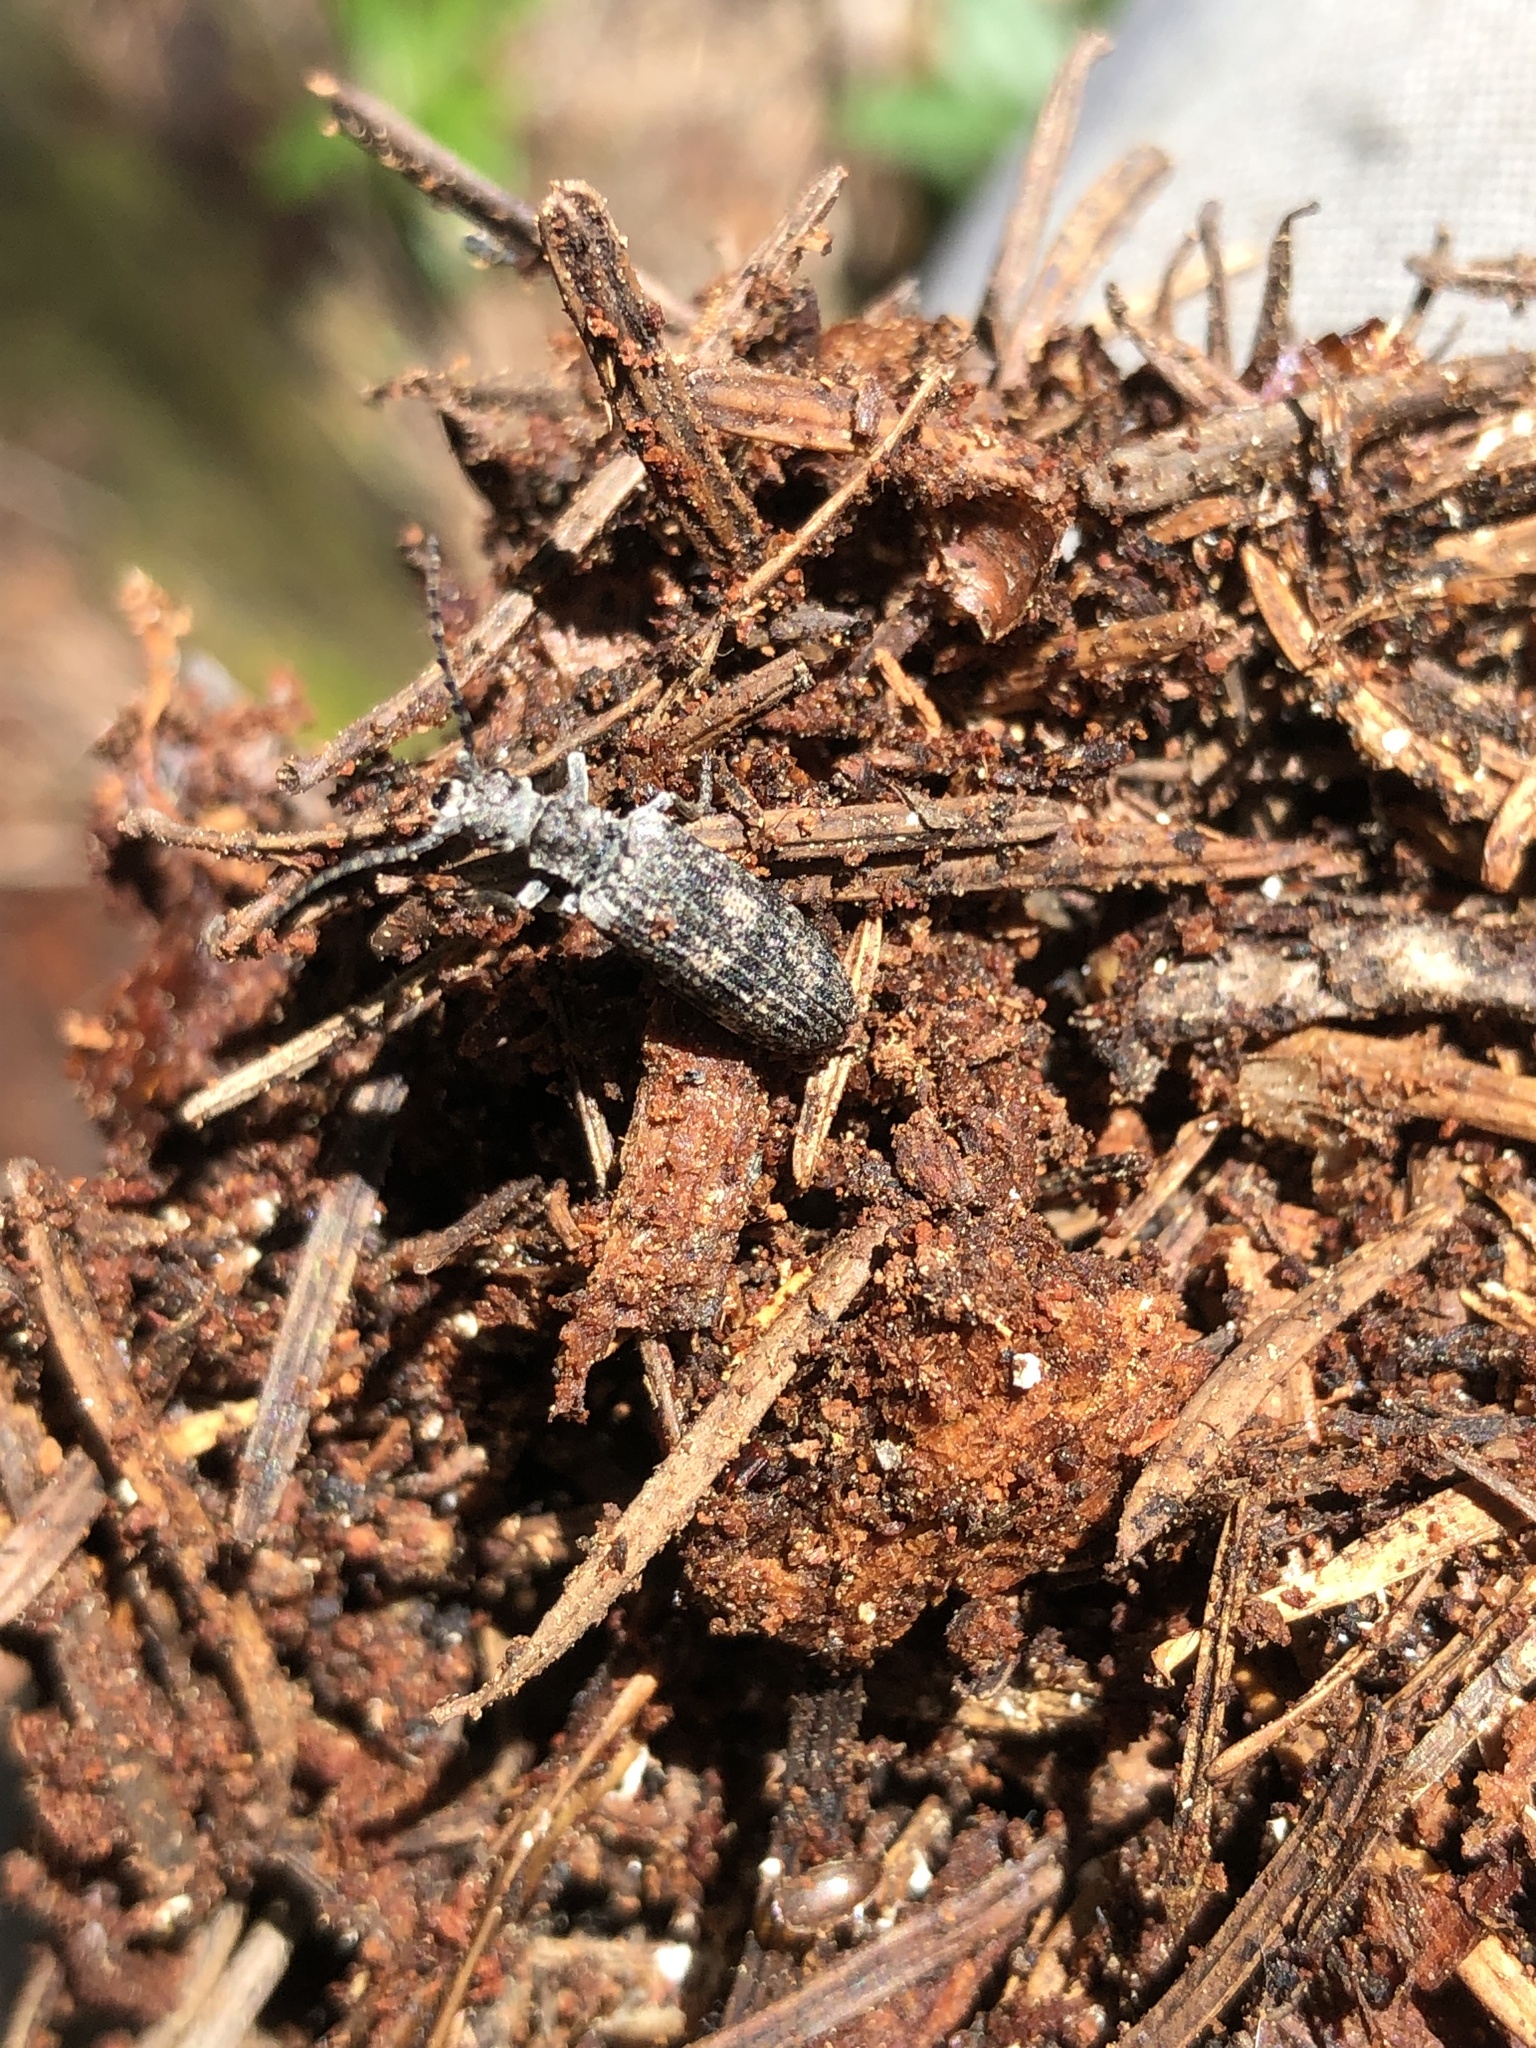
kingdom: Animalia
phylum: Arthropoda
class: Insecta
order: Coleoptera
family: Cupedidae
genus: Priacma
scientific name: Priacma serrata
